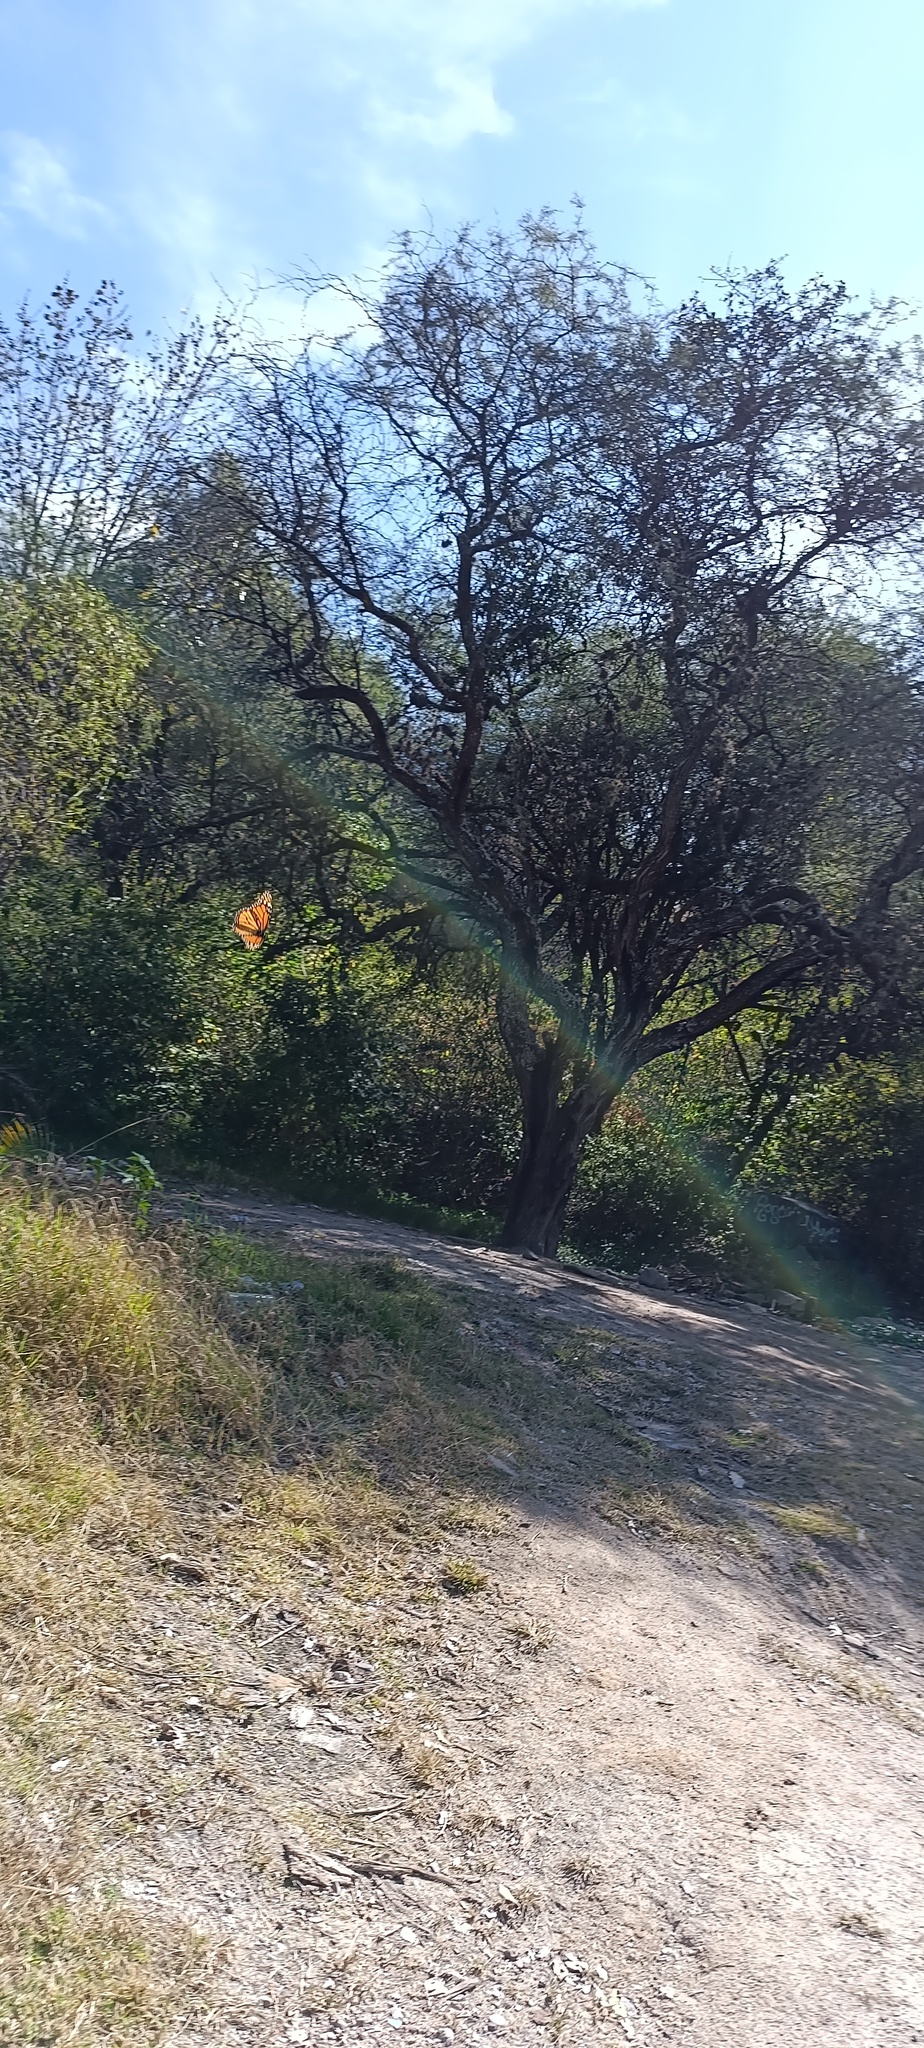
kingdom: Animalia
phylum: Arthropoda
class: Insecta
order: Lepidoptera
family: Nymphalidae
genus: Danaus
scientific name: Danaus plexippus
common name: Monarch
